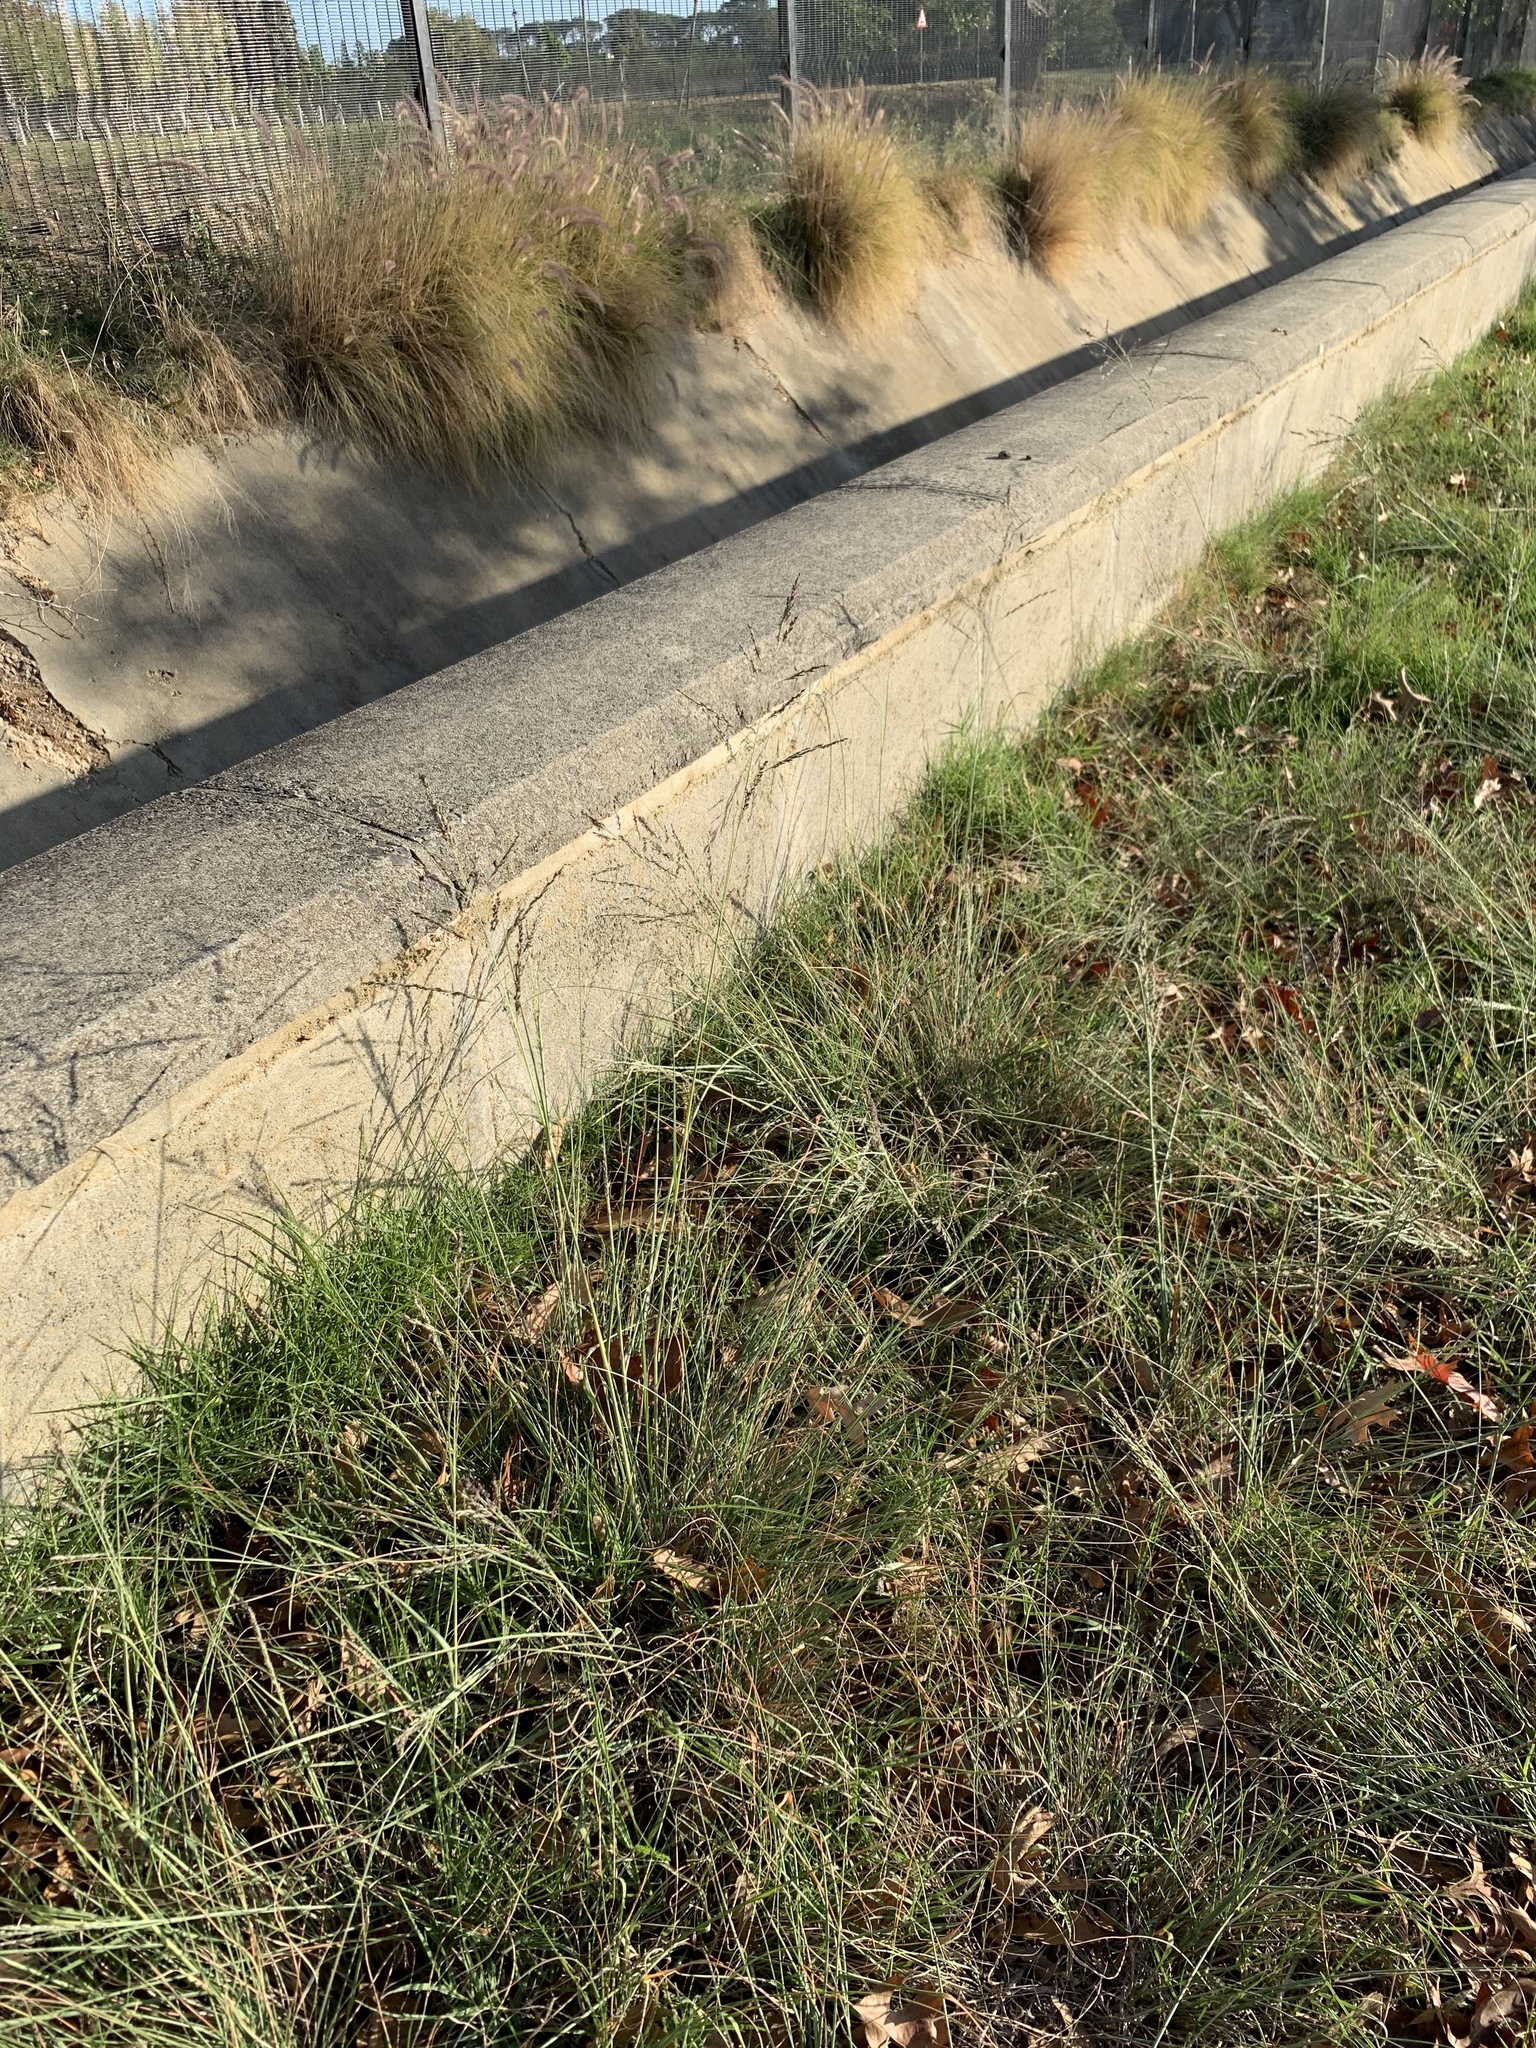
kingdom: Plantae
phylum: Tracheophyta
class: Liliopsida
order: Poales
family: Poaceae
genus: Eragrostis
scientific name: Eragrostis curvula
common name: African love-grass
